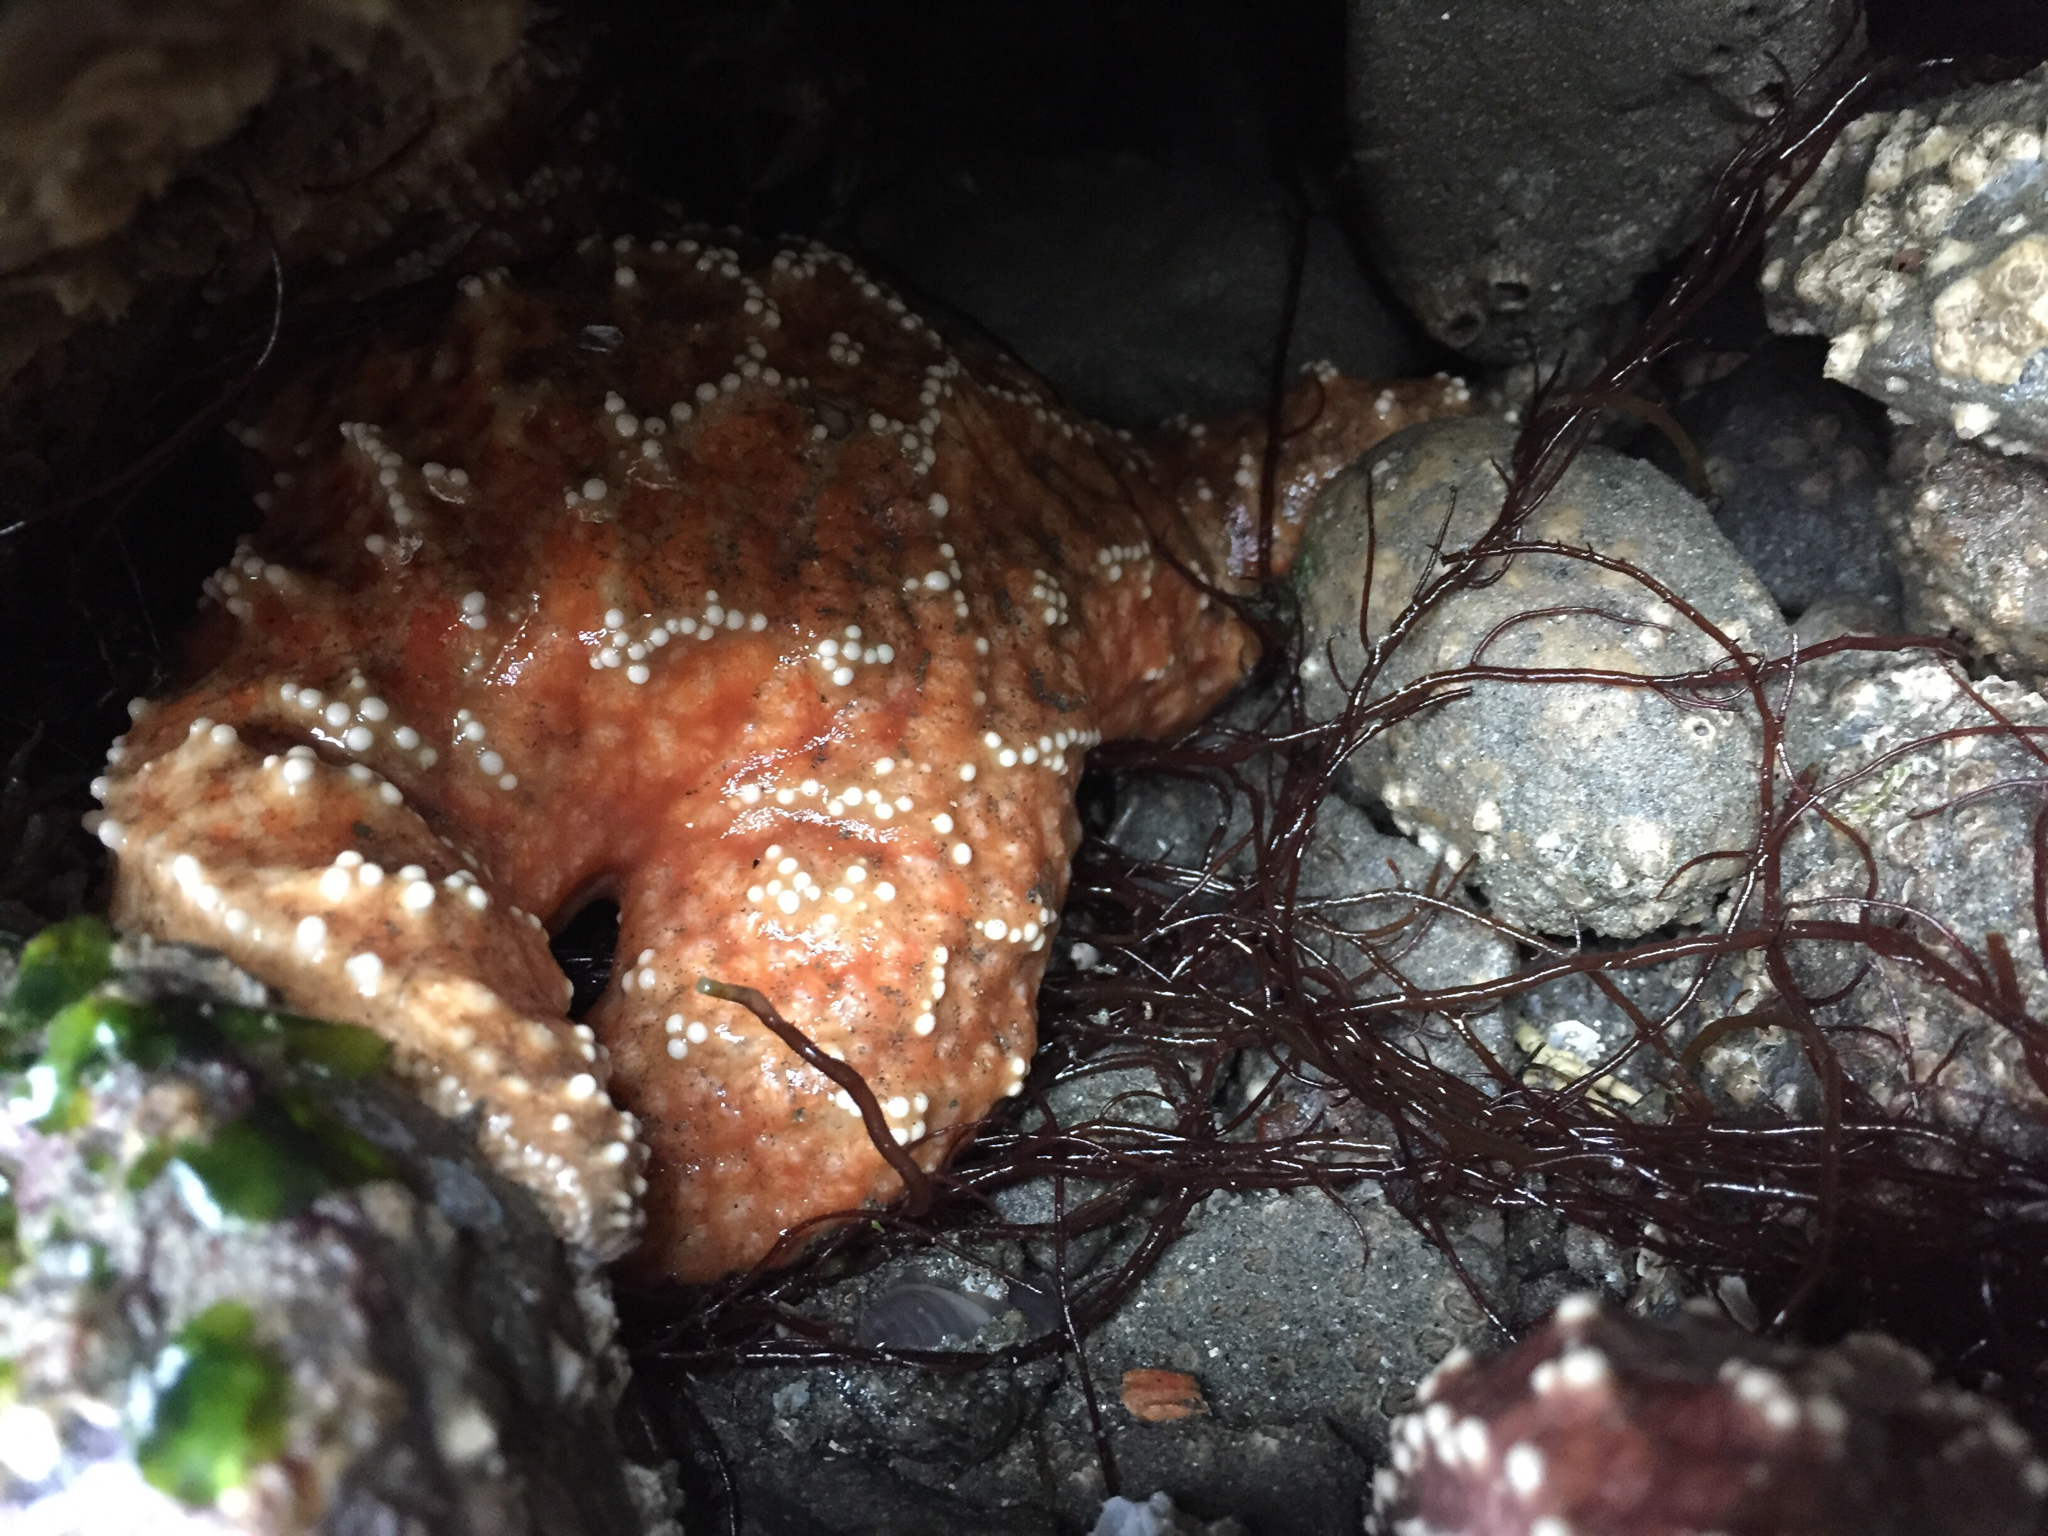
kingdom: Animalia
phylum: Echinodermata
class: Asteroidea
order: Forcipulatida
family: Asteriidae
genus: Pisaster
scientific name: Pisaster ochraceus
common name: Ochre stars
